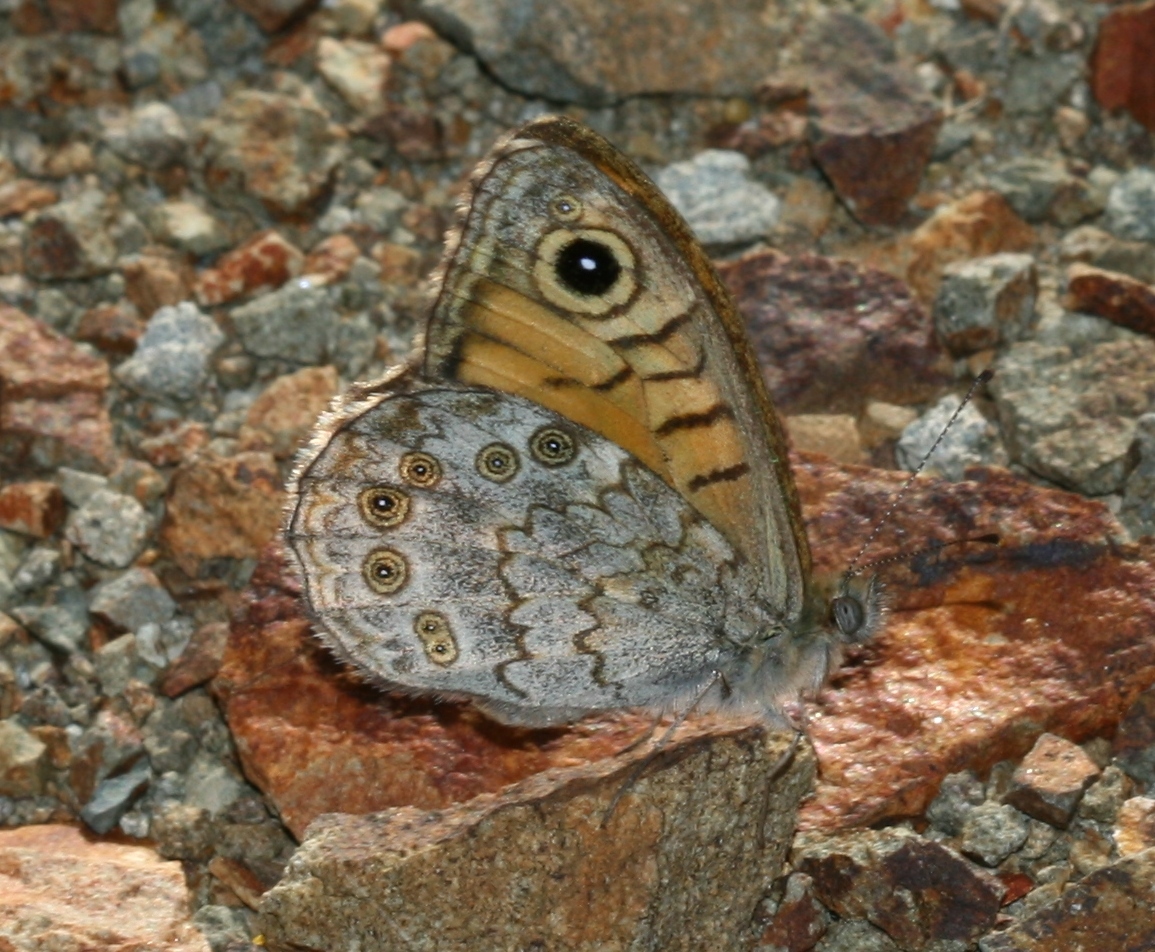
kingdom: Animalia
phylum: Arthropoda
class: Insecta
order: Lepidoptera
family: Nymphalidae
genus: Pararge
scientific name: Pararge Lasiommata megera
